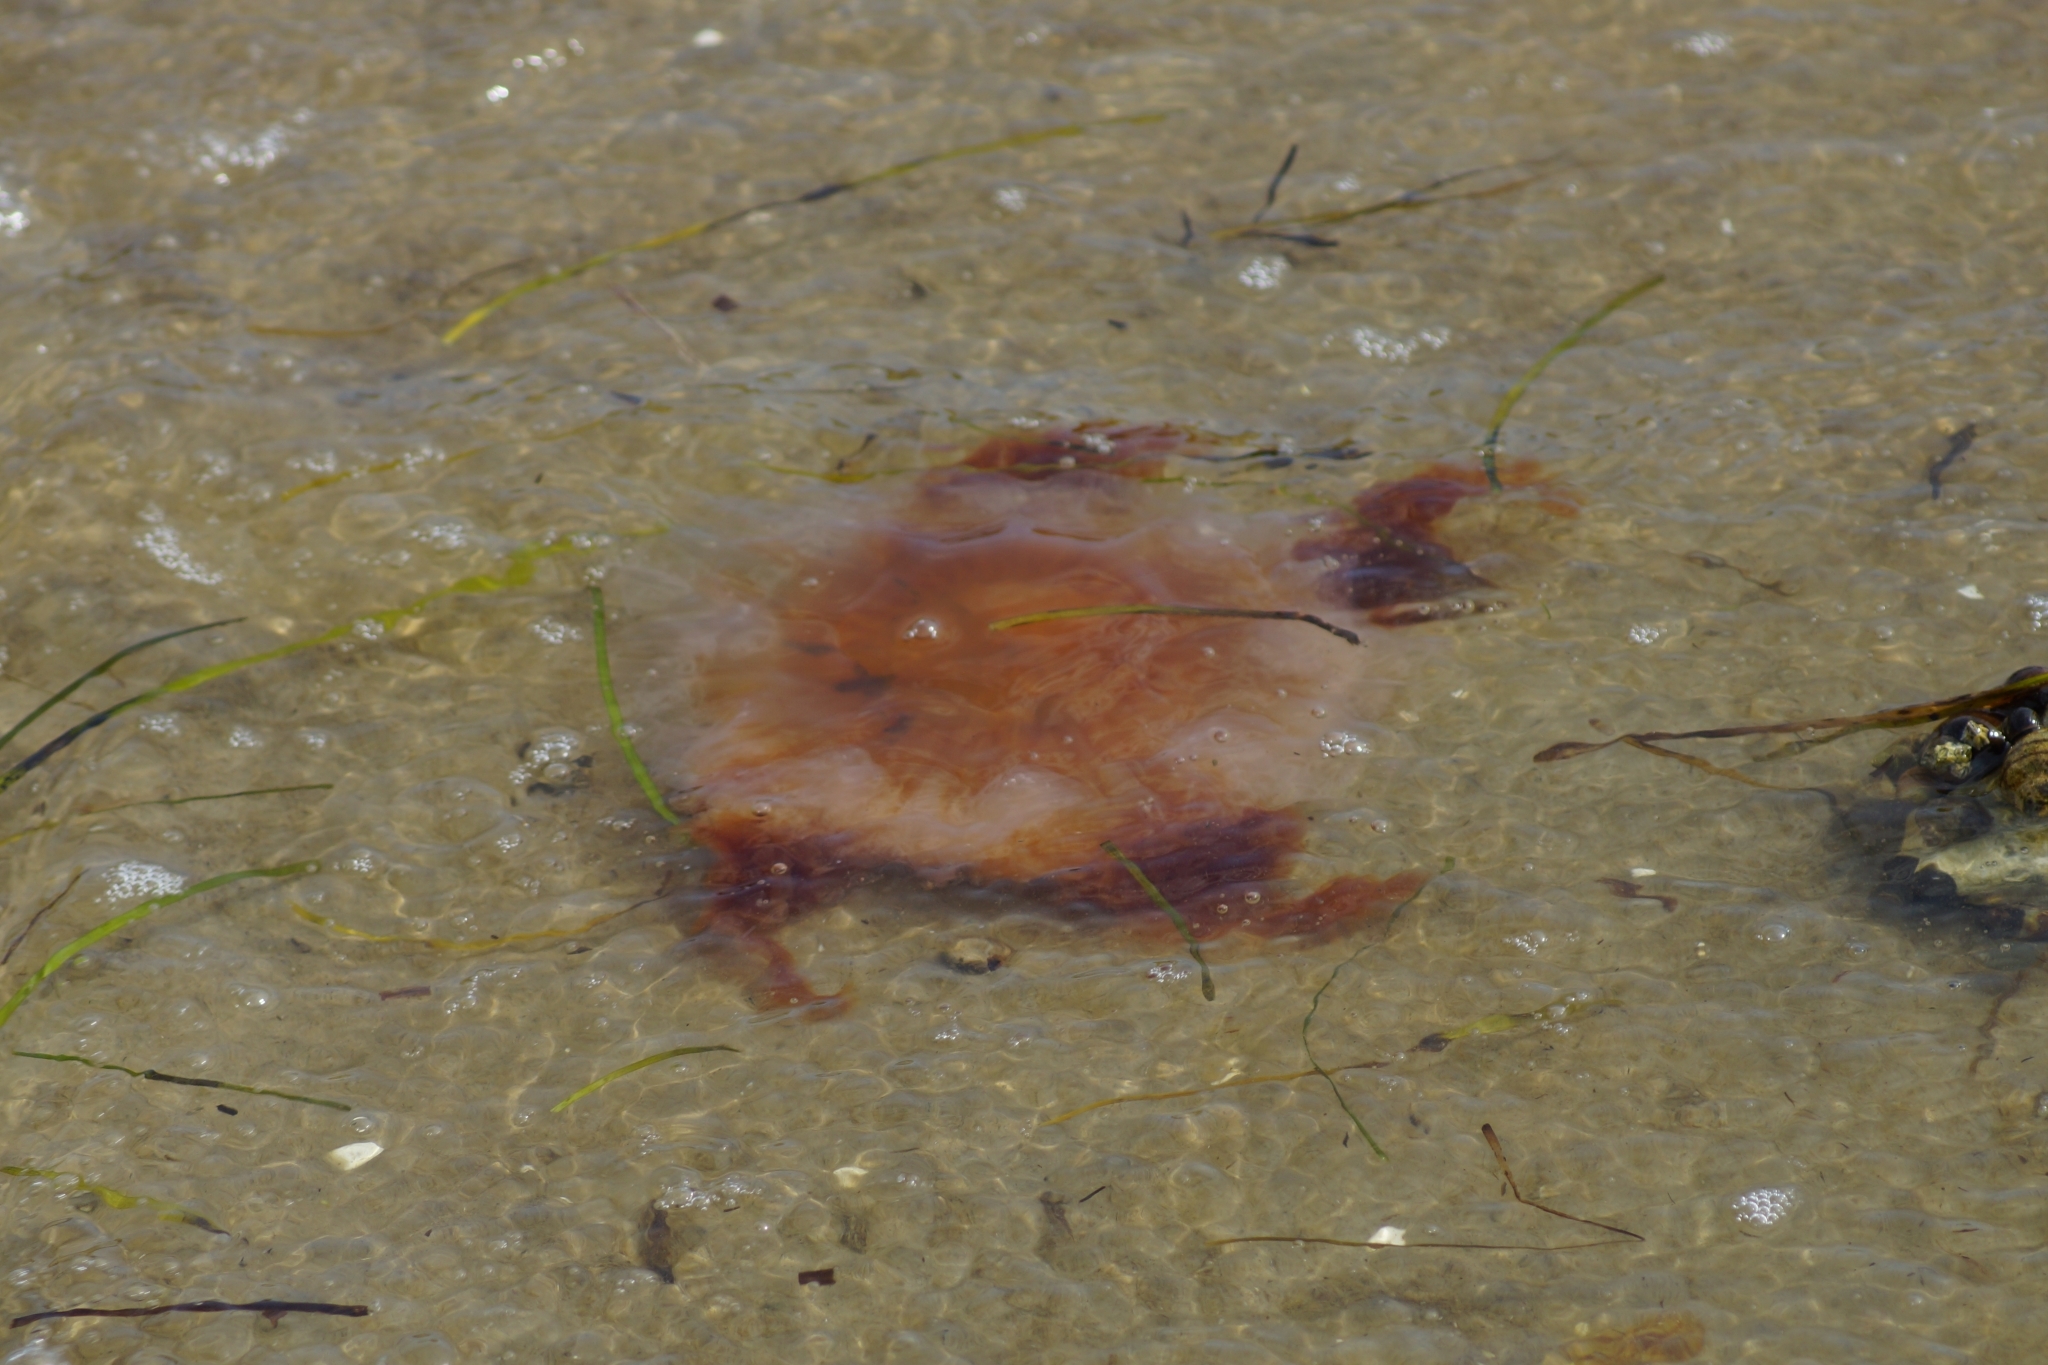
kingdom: Animalia
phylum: Cnidaria
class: Scyphozoa
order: Semaeostomeae
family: Cyaneidae
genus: Cyanea
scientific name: Cyanea capillata
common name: Lion's mane jellyfish
